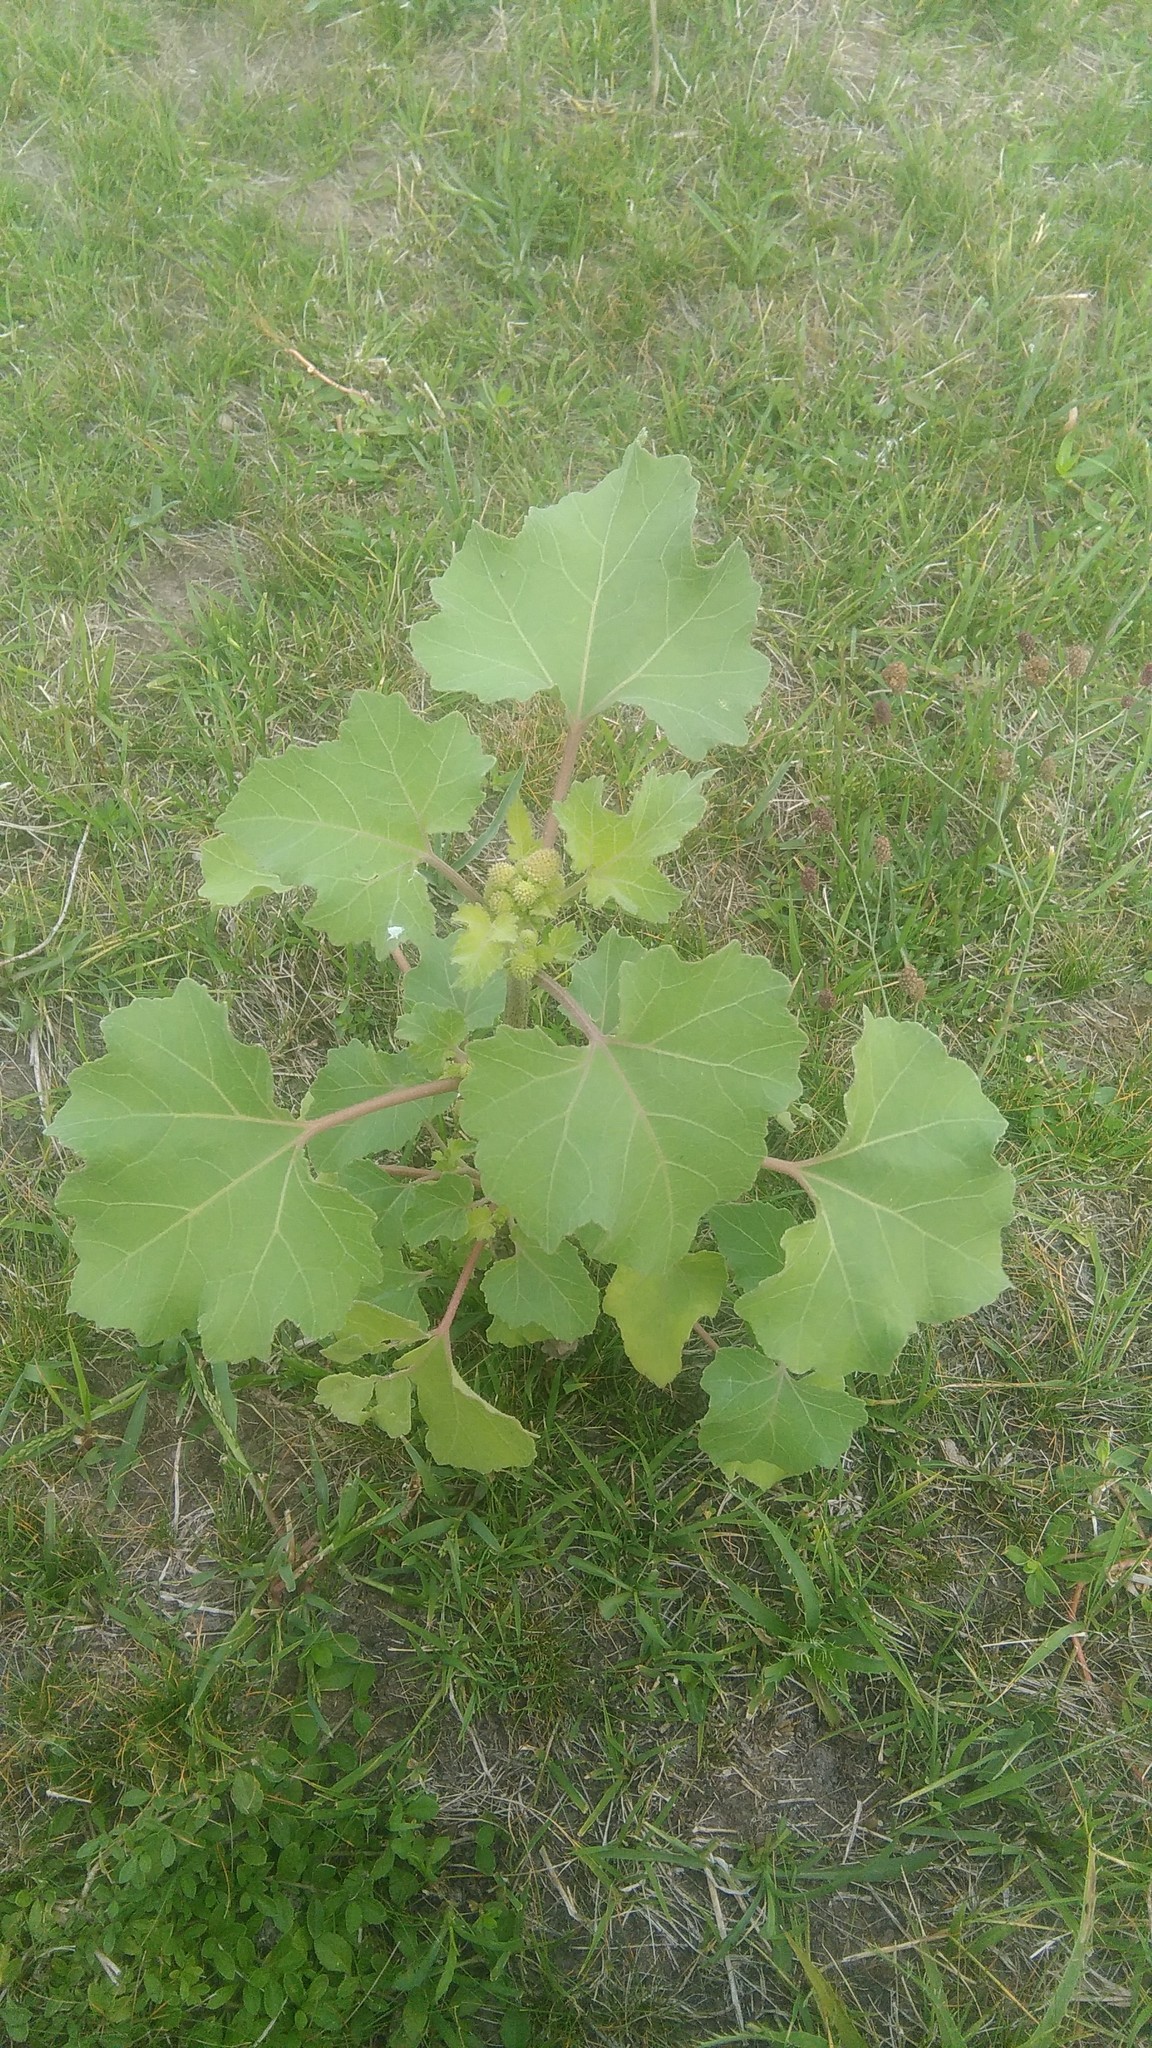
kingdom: Plantae
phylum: Tracheophyta
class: Magnoliopsida
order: Asterales
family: Asteraceae
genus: Xanthium
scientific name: Xanthium orientale
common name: Californian burr
